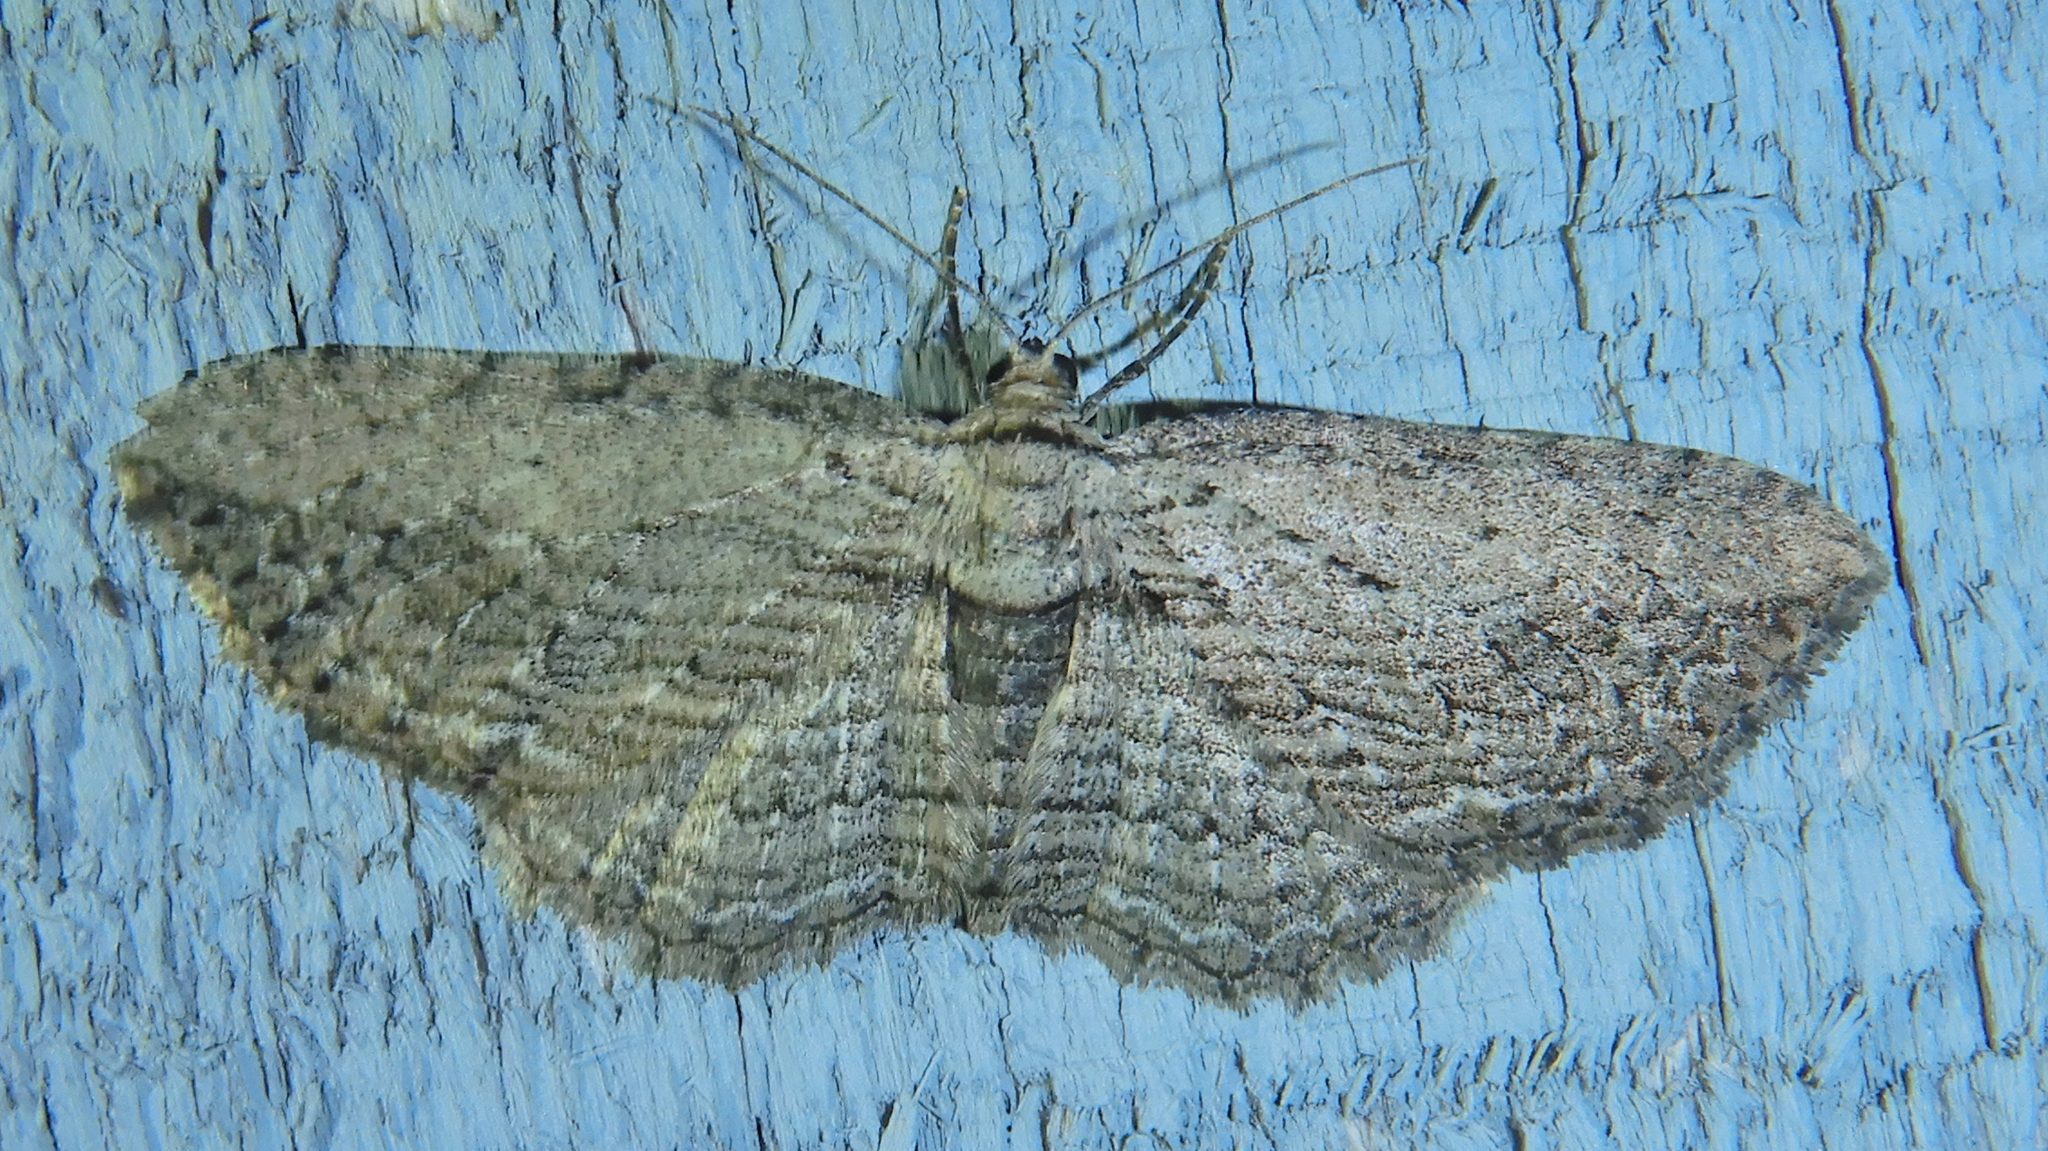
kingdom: Animalia
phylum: Arthropoda
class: Insecta
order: Lepidoptera
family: Geometridae
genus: Horisme
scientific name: Horisme intestinata
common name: Brown bark carpet
